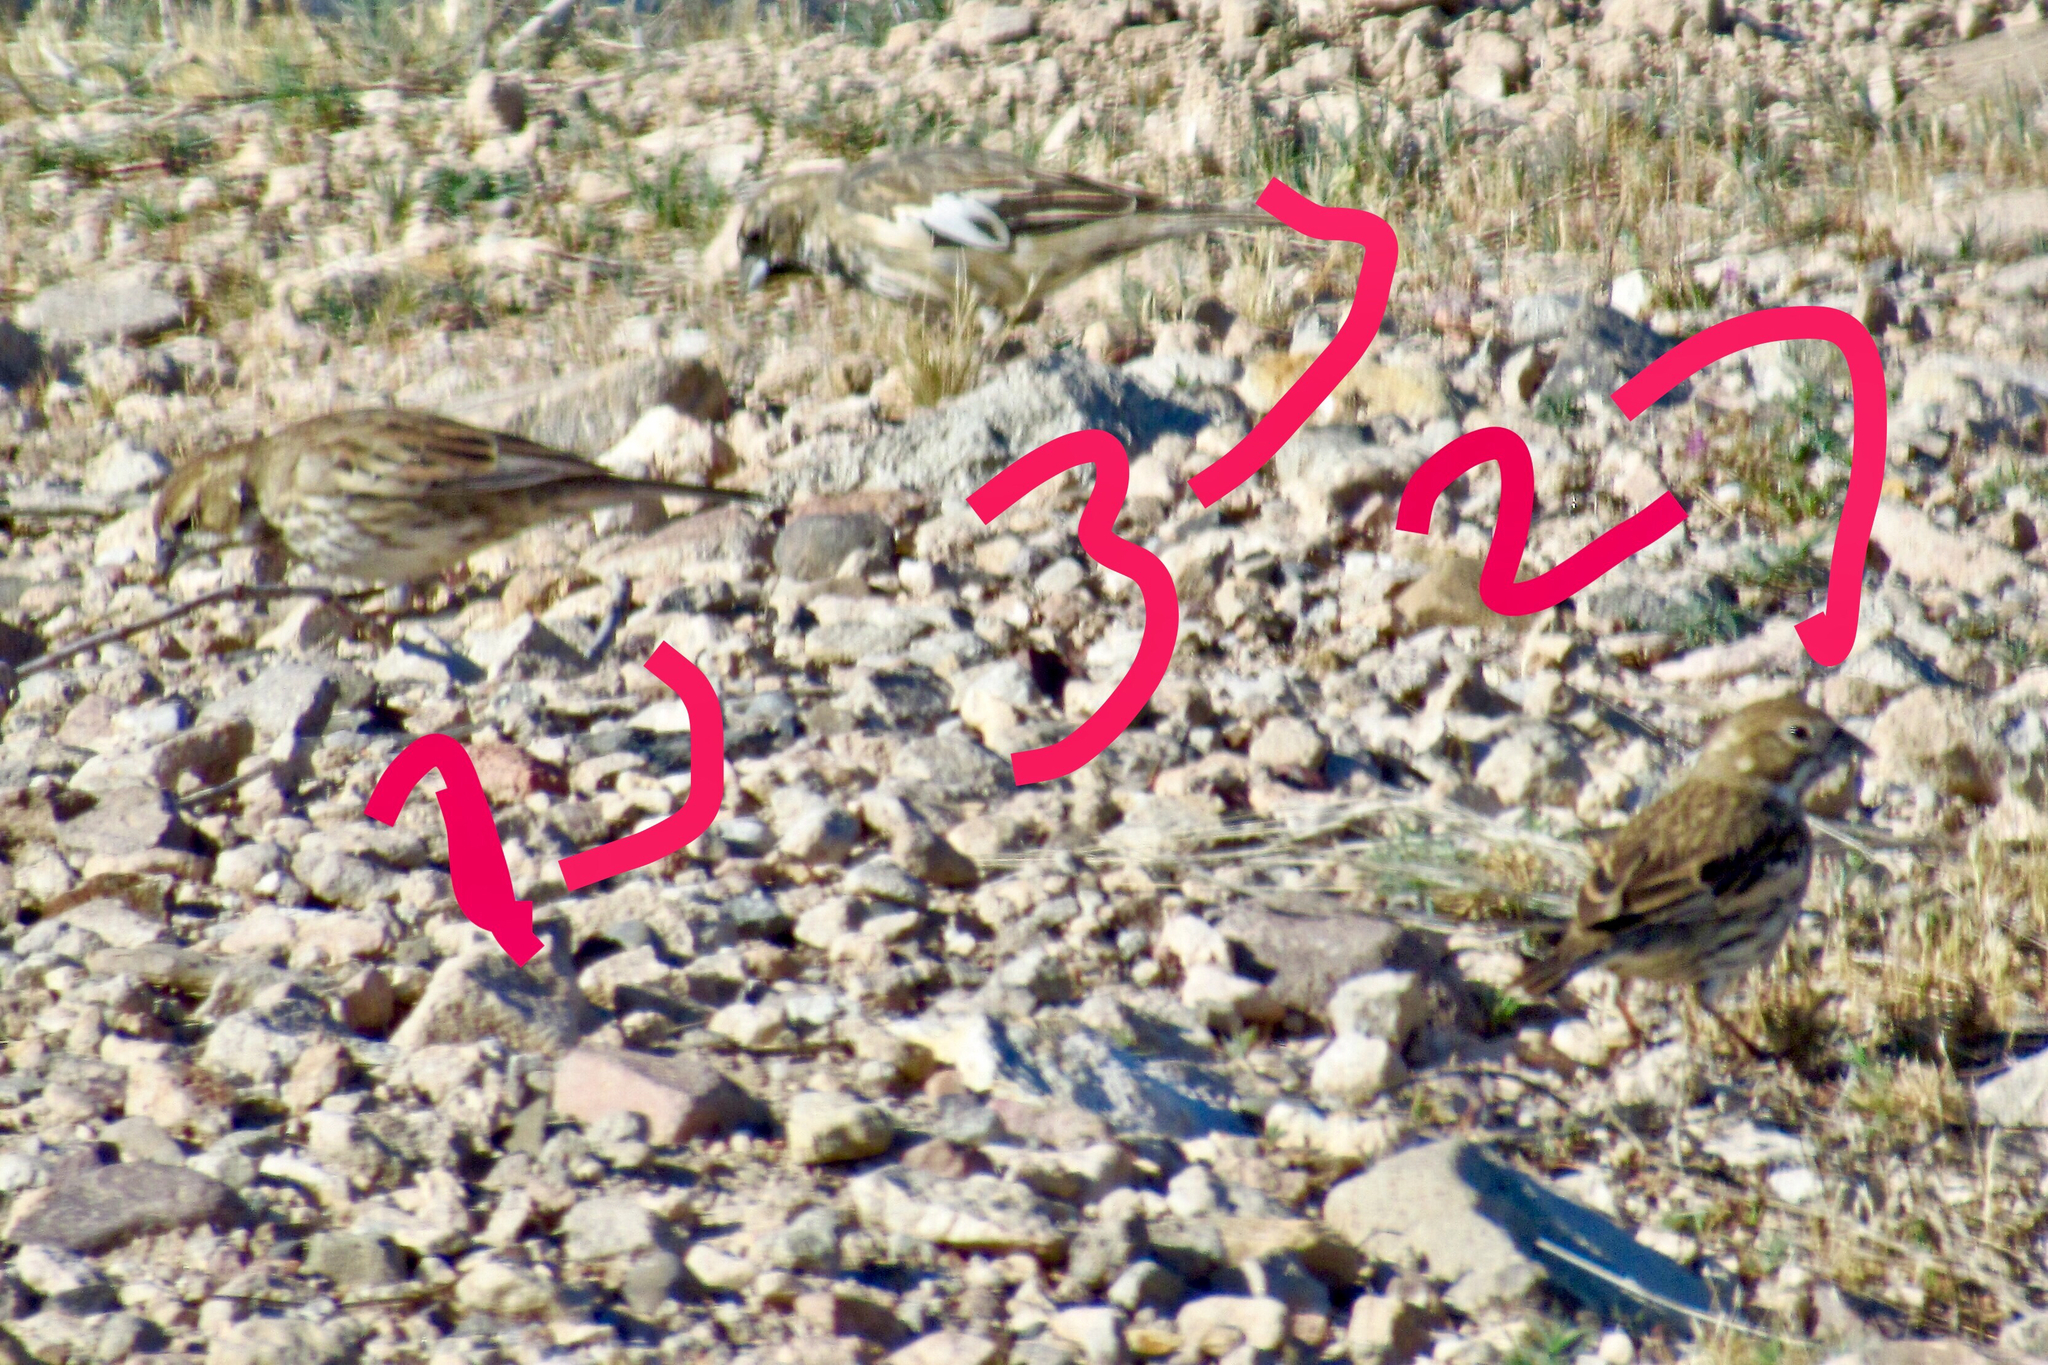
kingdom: Animalia
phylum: Chordata
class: Aves
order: Passeriformes
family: Passerellidae
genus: Calamospiza
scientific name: Calamospiza melanocorys
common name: Lark bunting
